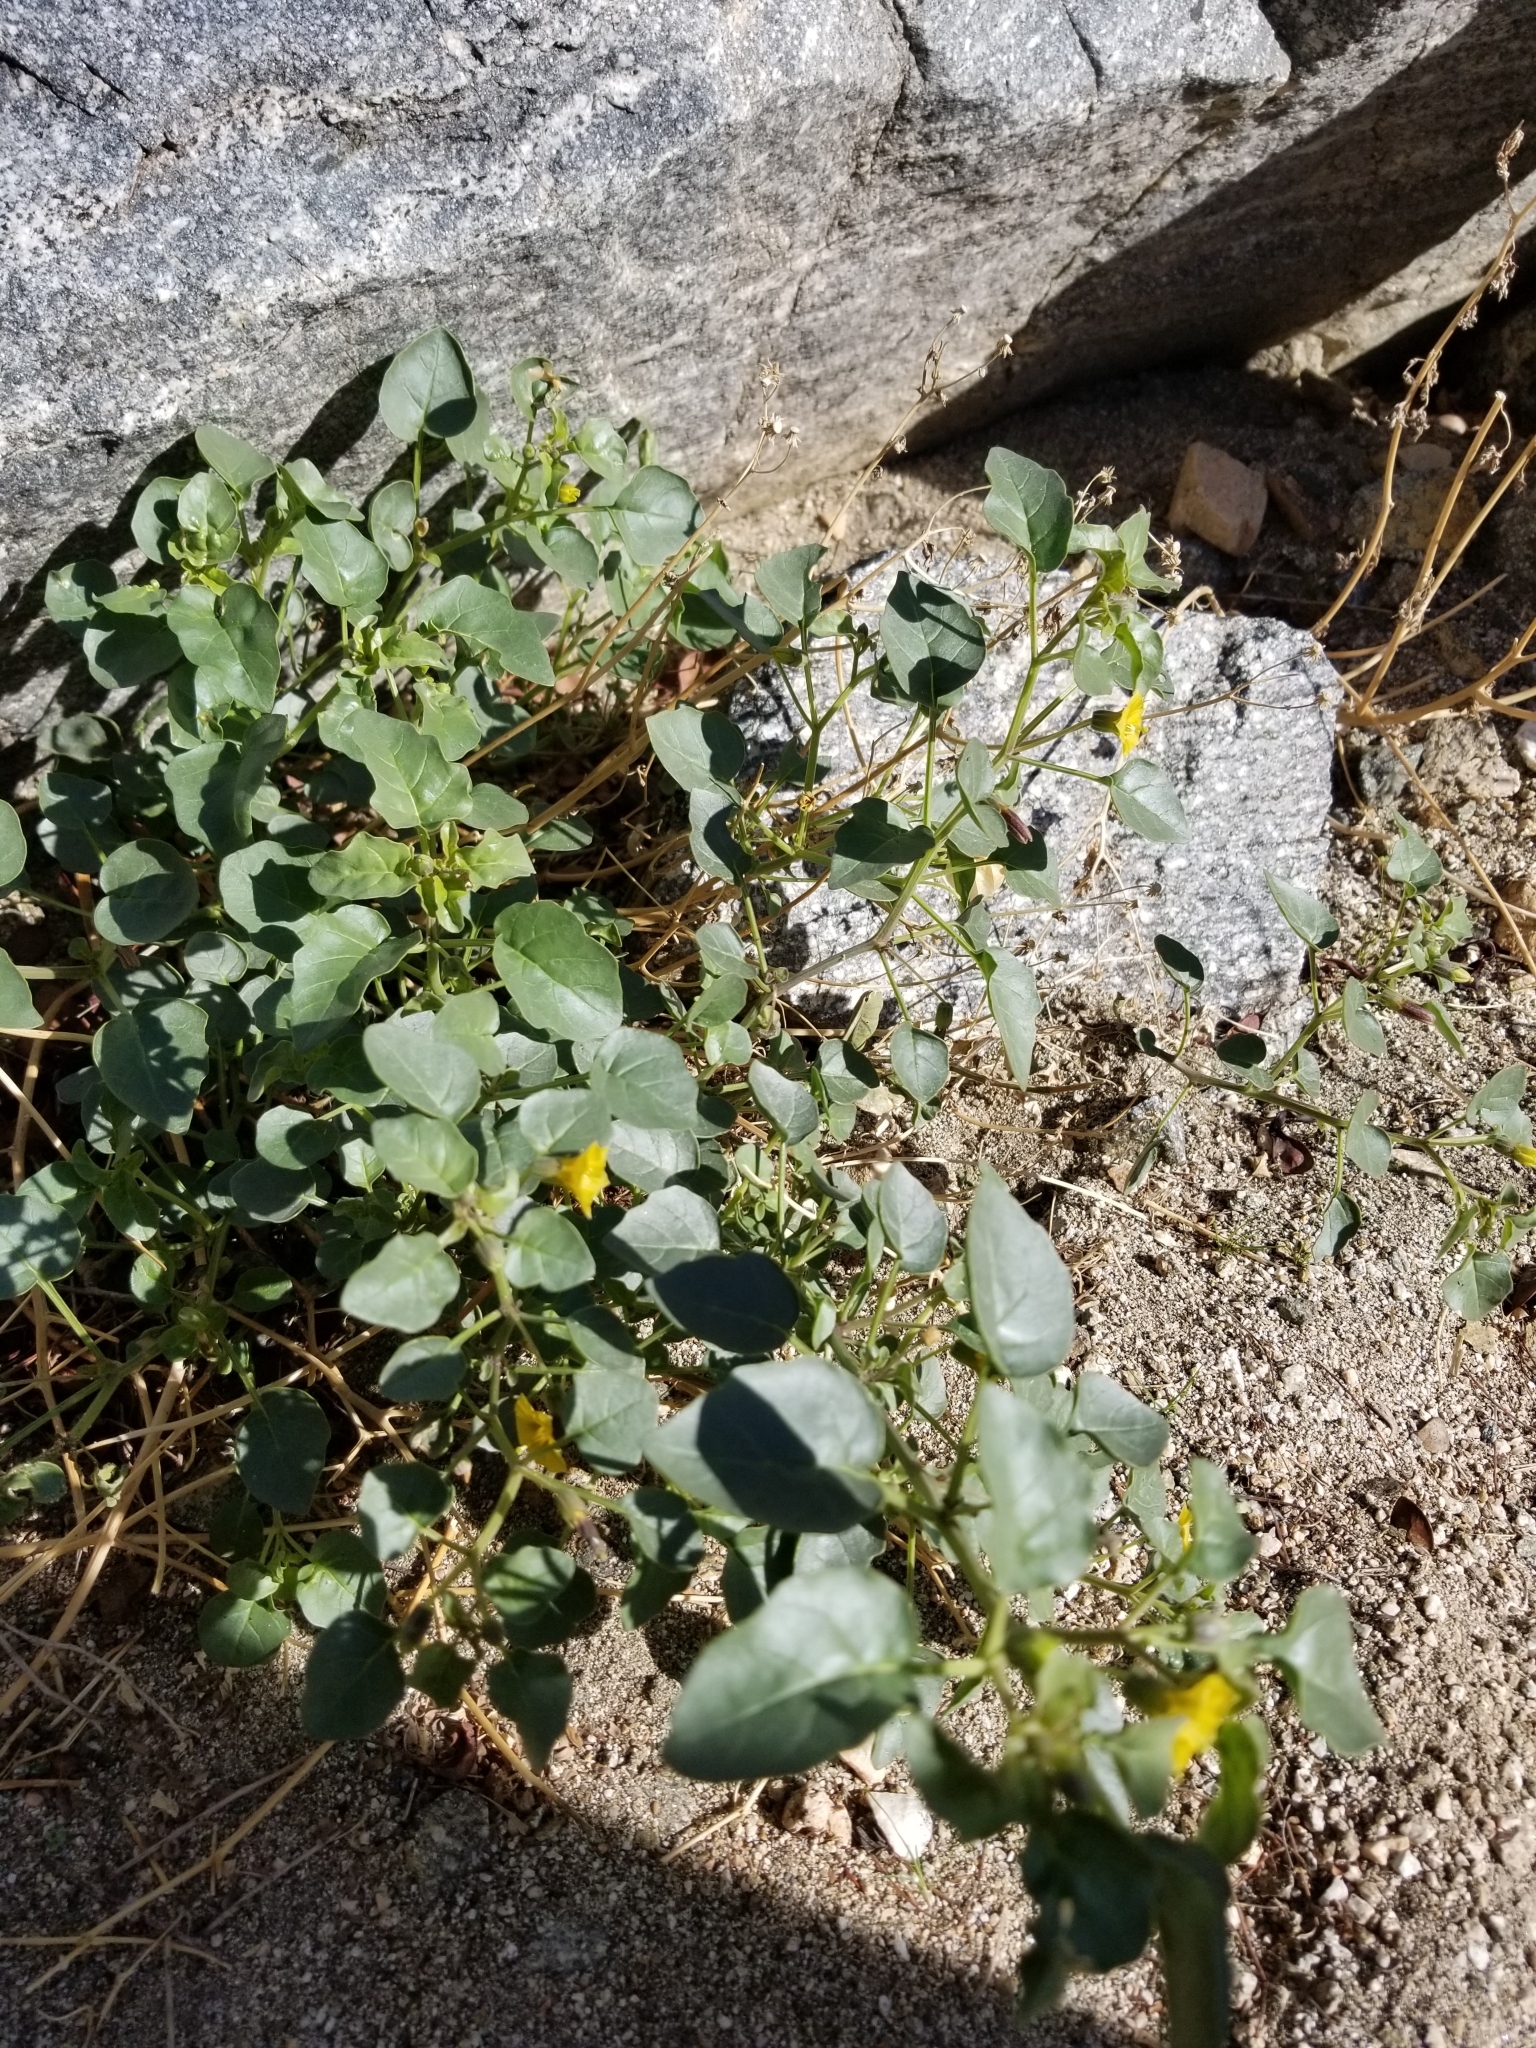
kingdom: Plantae
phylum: Tracheophyta
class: Magnoliopsida
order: Solanales
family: Solanaceae
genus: Physalis
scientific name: Physalis crassifolia
